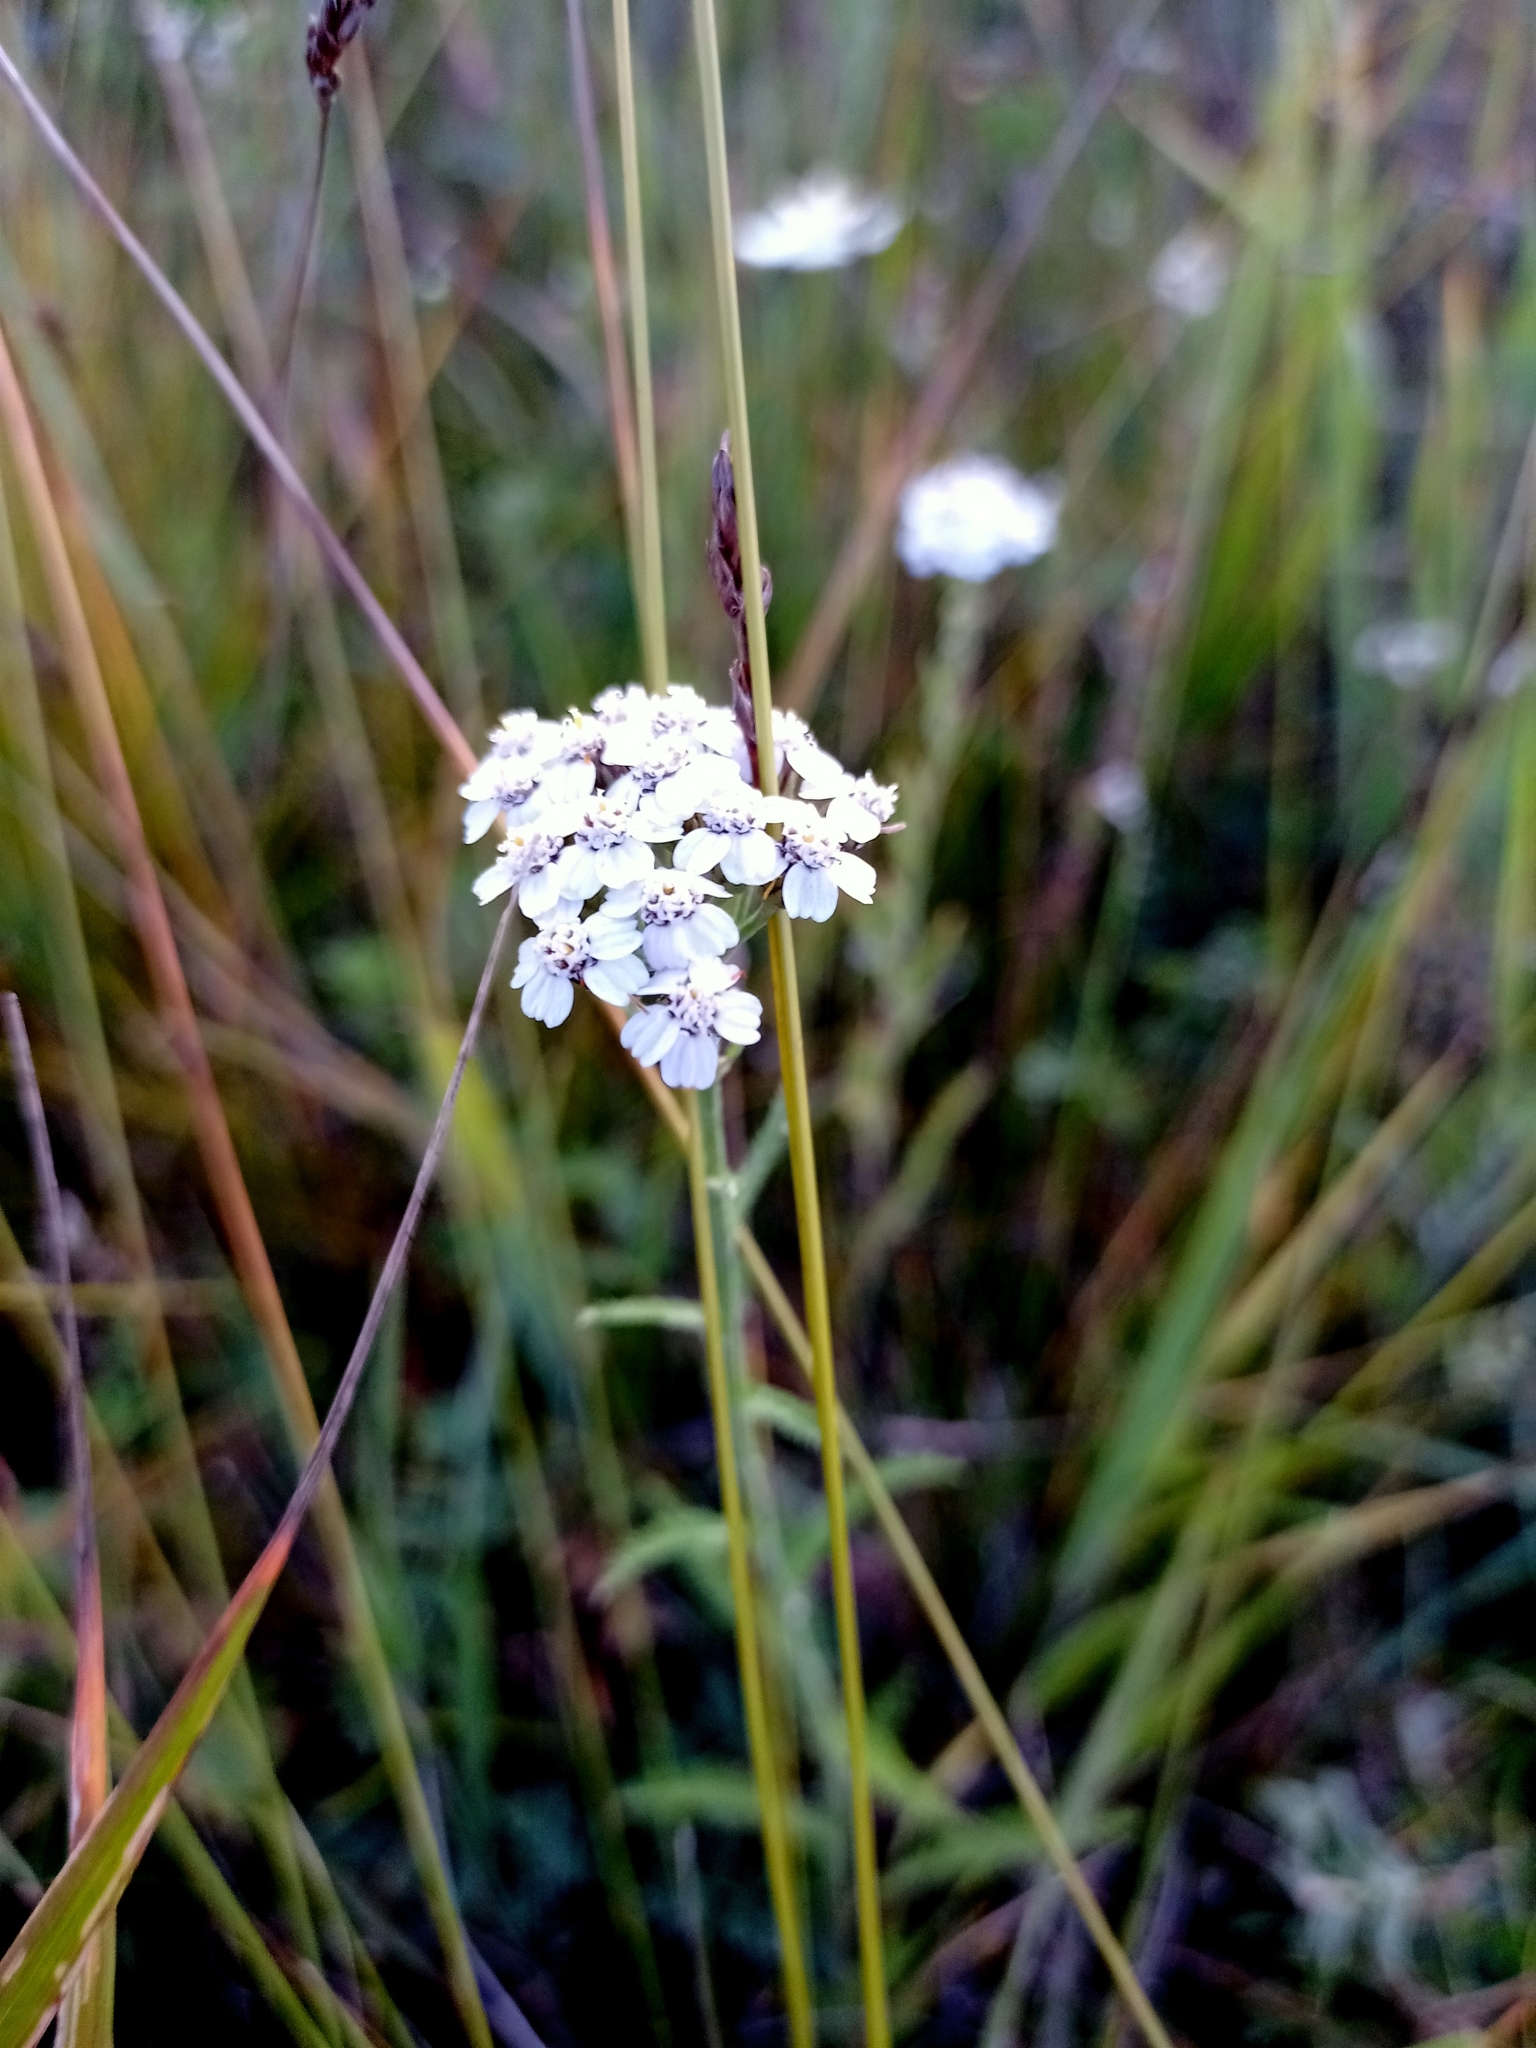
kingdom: Plantae
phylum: Tracheophyta
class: Magnoliopsida
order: Asterales
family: Asteraceae
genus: Achillea
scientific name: Achillea asiatica
